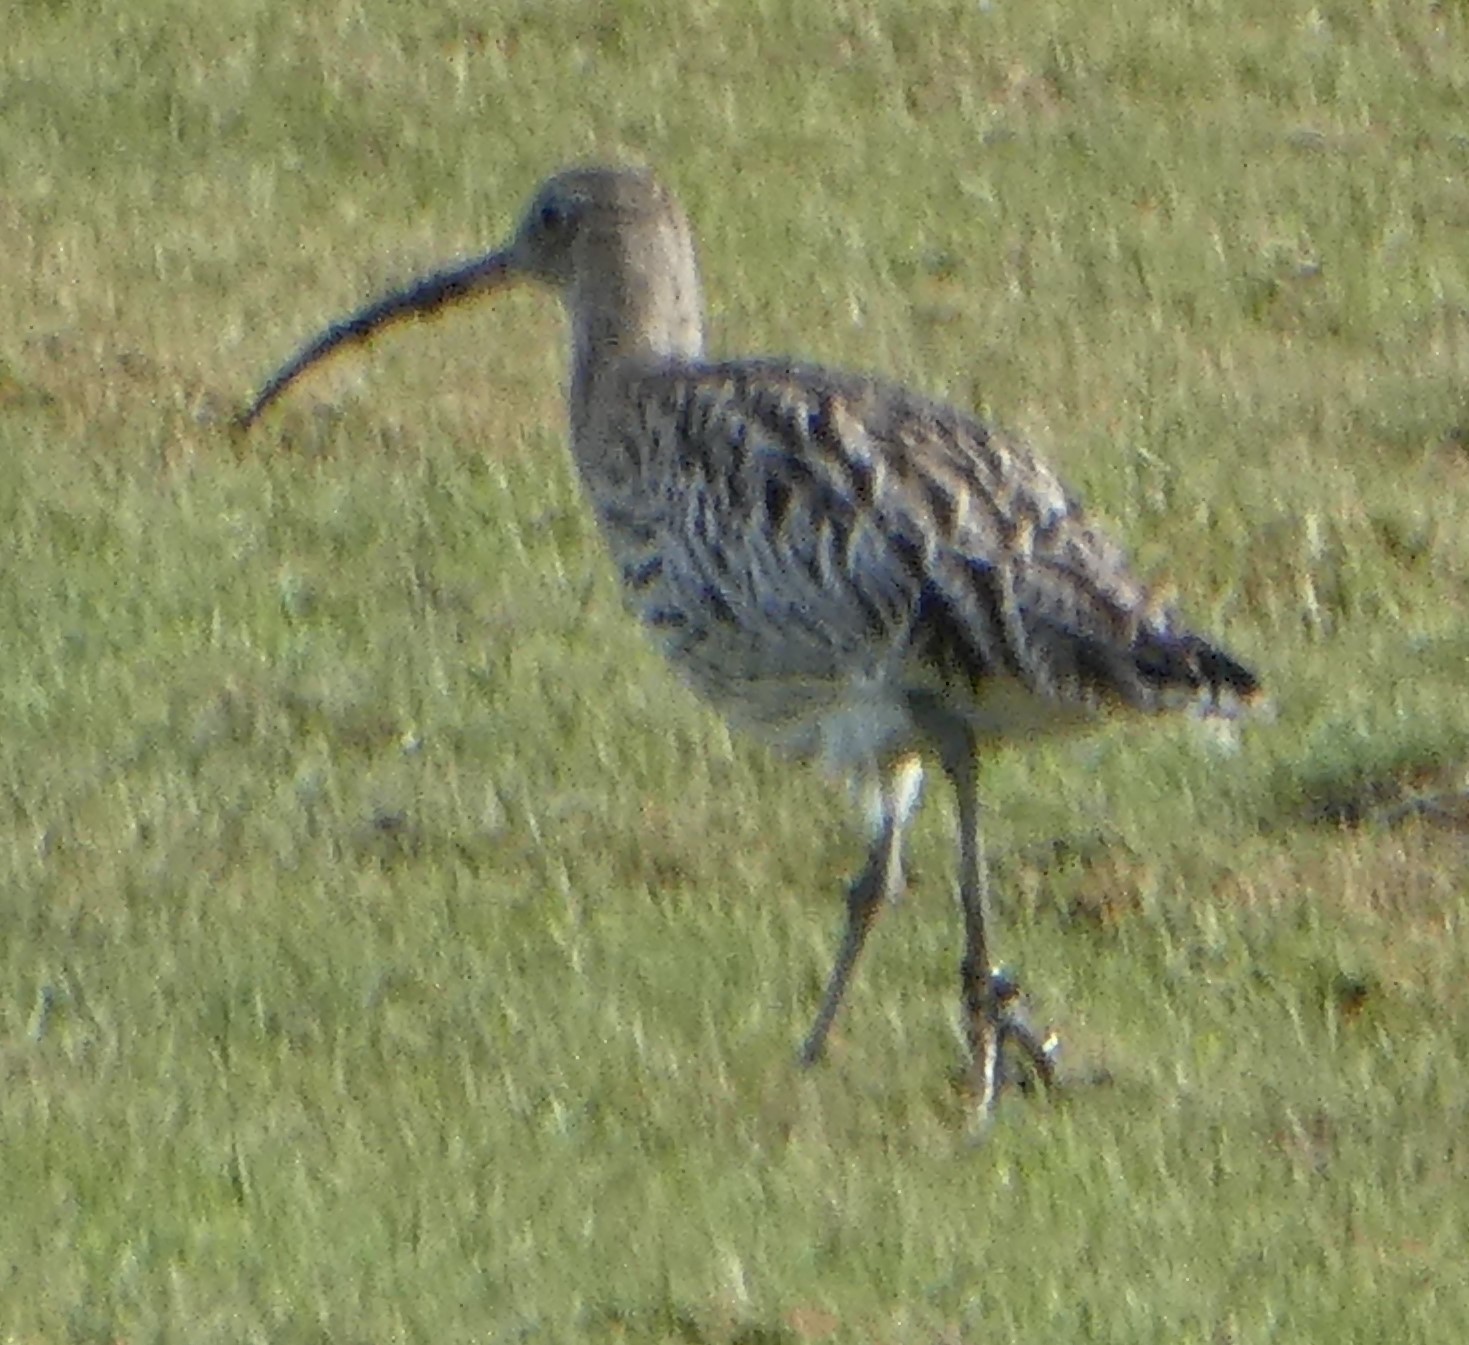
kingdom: Animalia
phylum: Chordata
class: Aves
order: Charadriiformes
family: Scolopacidae
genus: Numenius
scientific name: Numenius arquata
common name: Eurasian curlew
